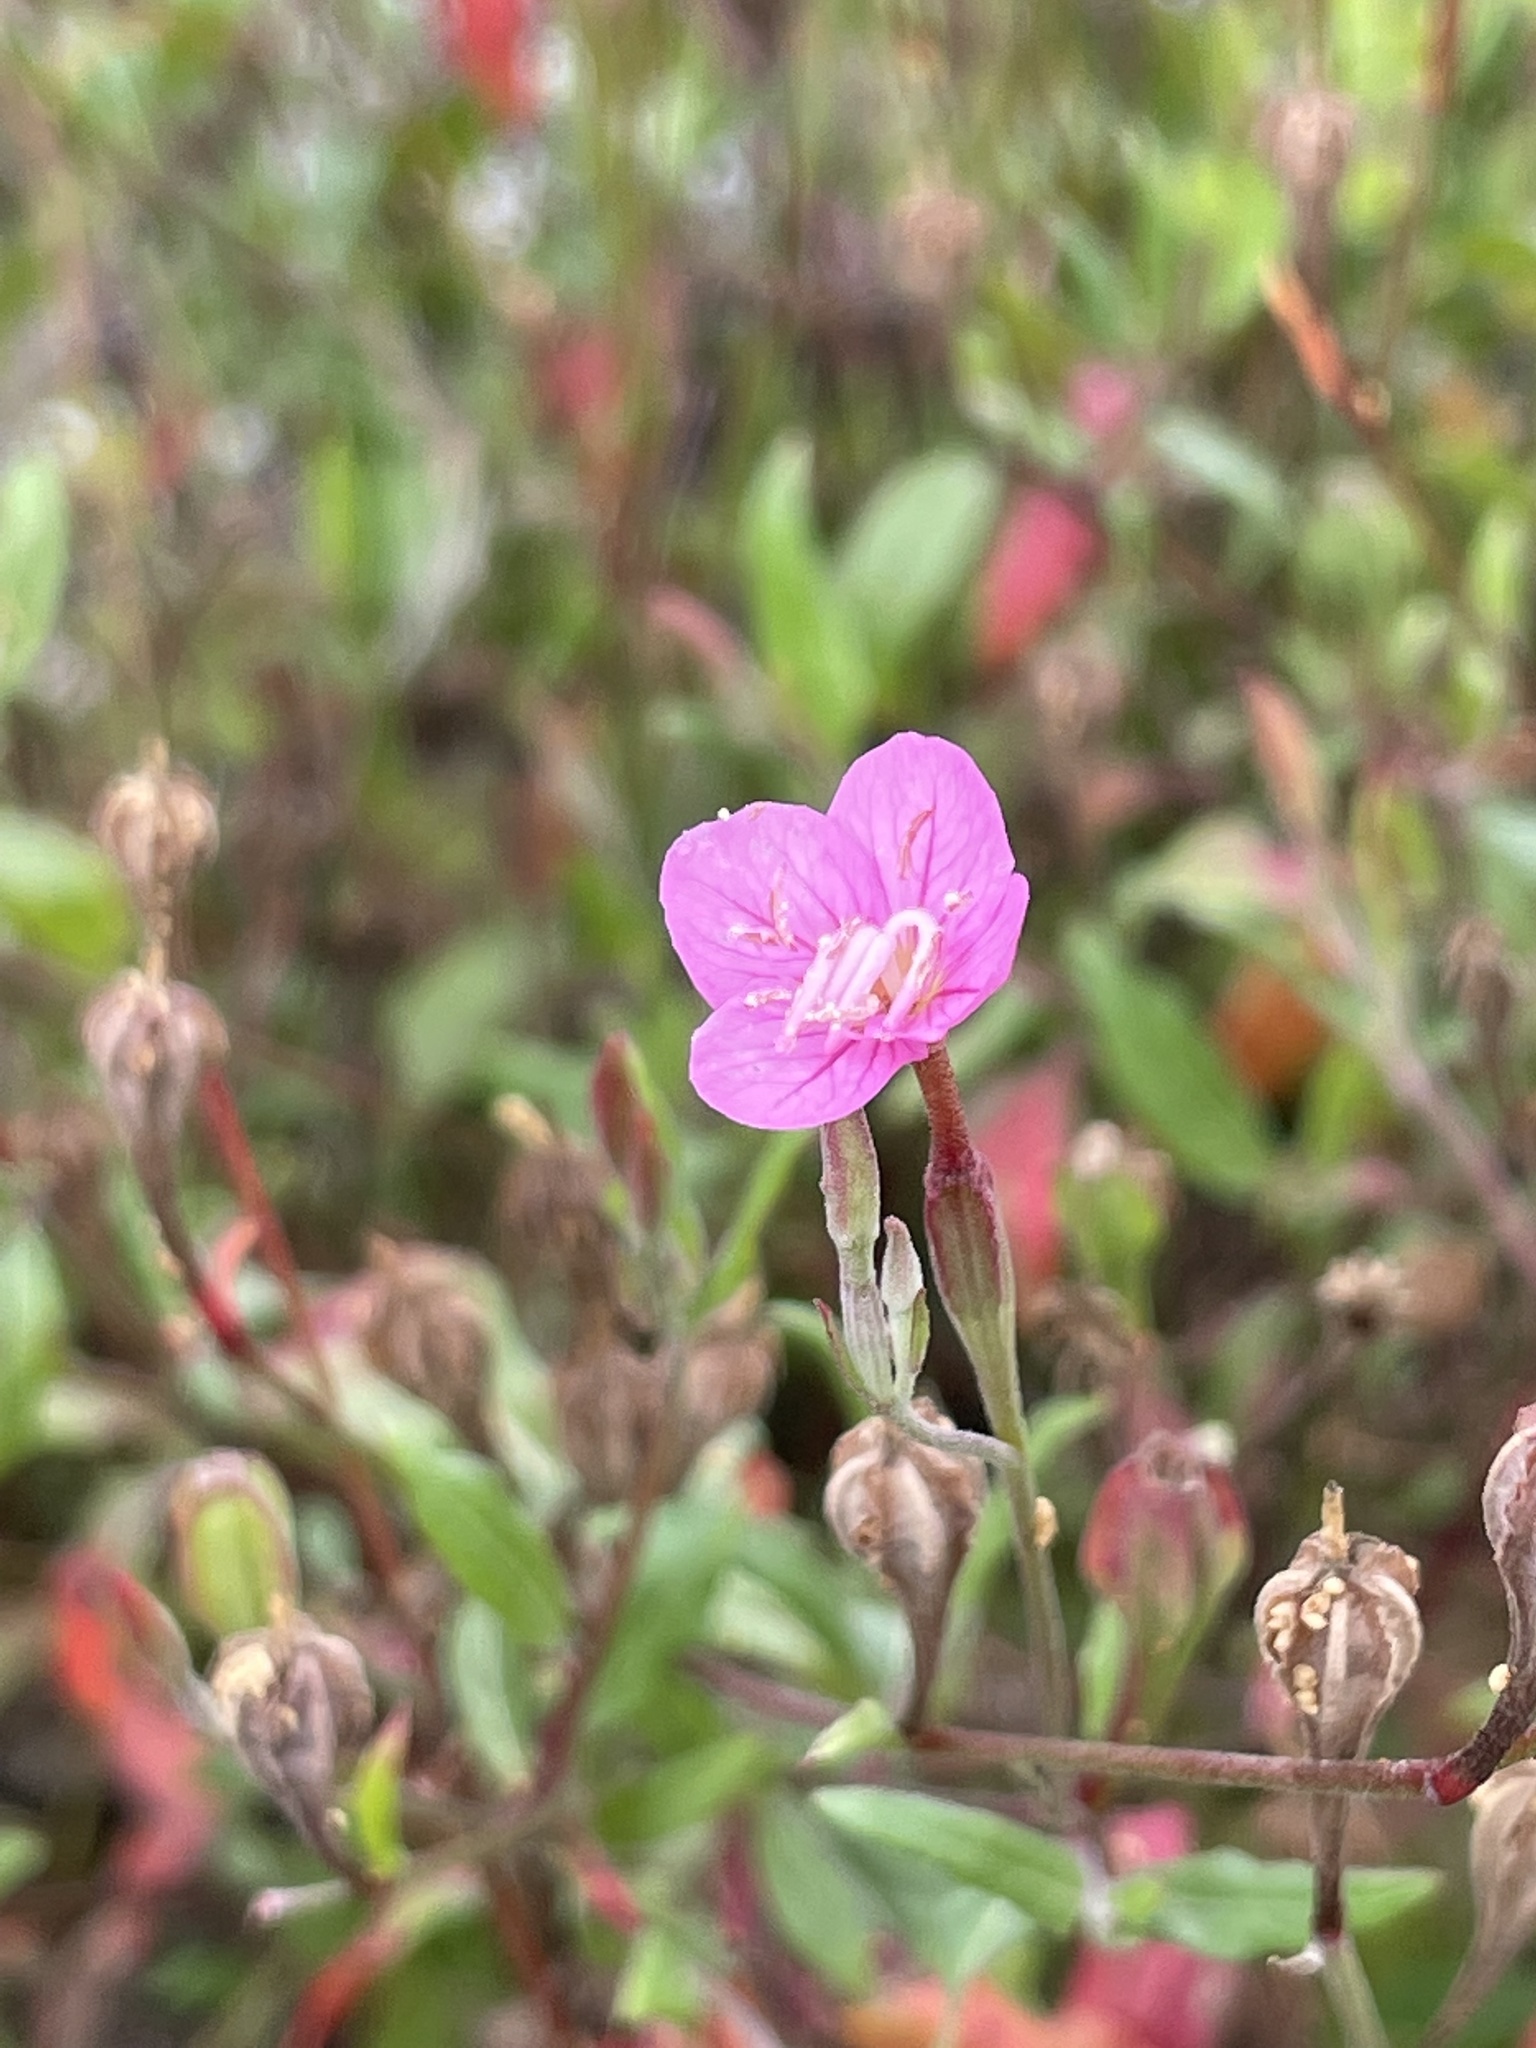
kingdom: Plantae
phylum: Tracheophyta
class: Magnoliopsida
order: Myrtales
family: Onagraceae
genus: Oenothera
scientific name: Oenothera rosea
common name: Rosy evening-primrose
